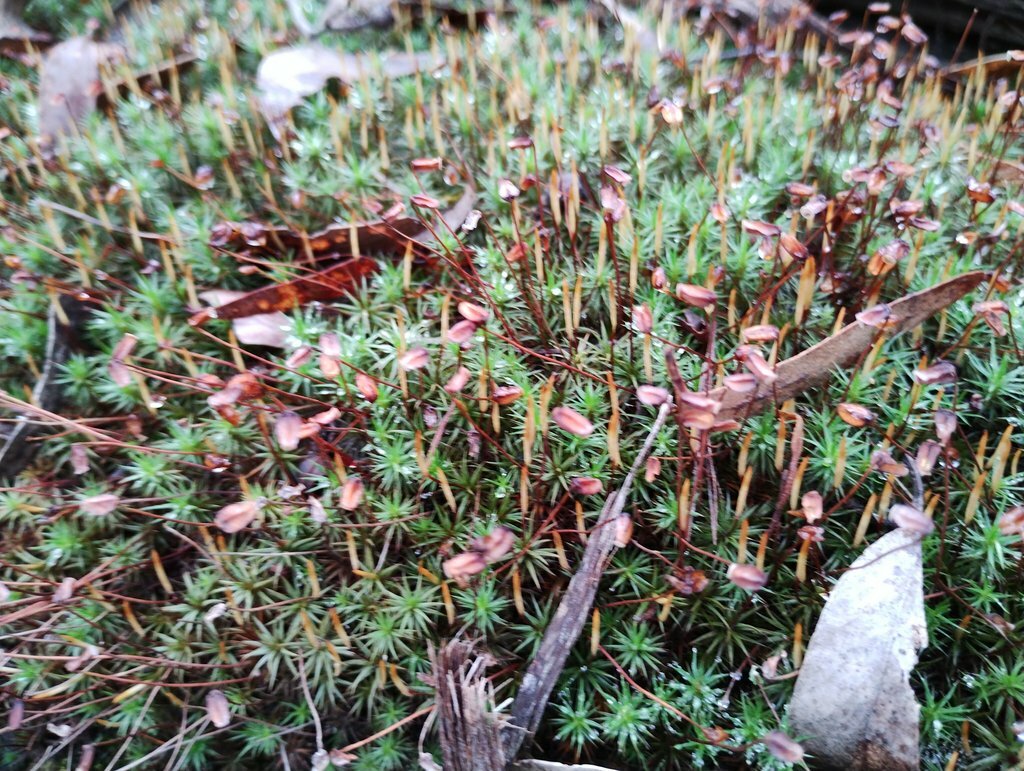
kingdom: Plantae
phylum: Bryophyta
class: Polytrichopsida
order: Polytrichales
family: Polytrichaceae
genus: Dawsonia
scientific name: Dawsonia longiseta
